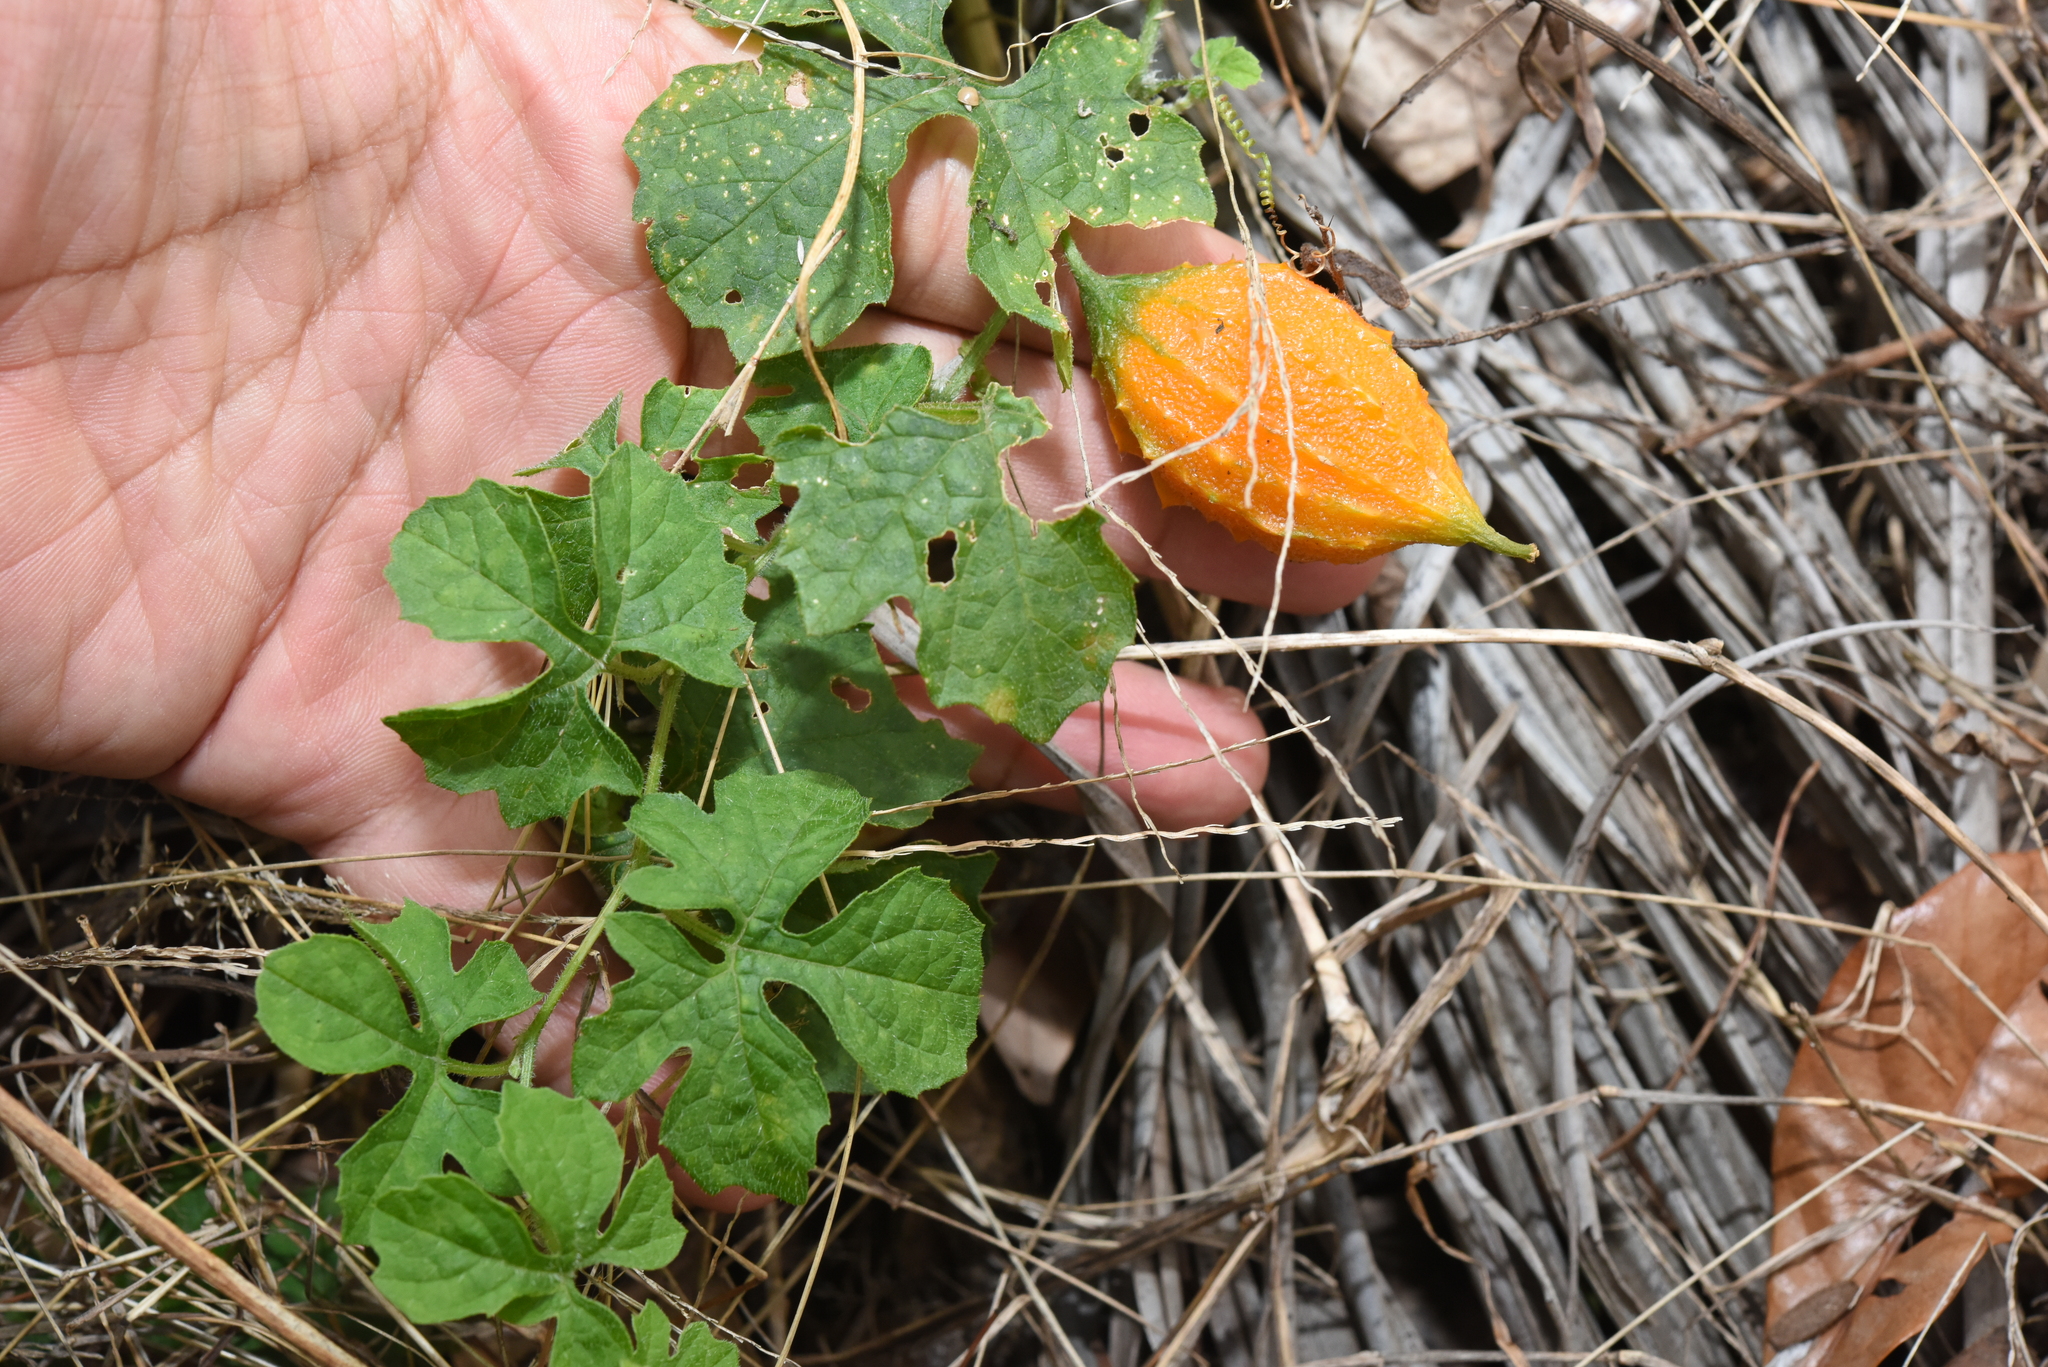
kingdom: Plantae
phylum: Tracheophyta
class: Magnoliopsida
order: Cucurbitales
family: Cucurbitaceae
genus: Momordica
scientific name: Momordica charantia
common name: Balsampear
